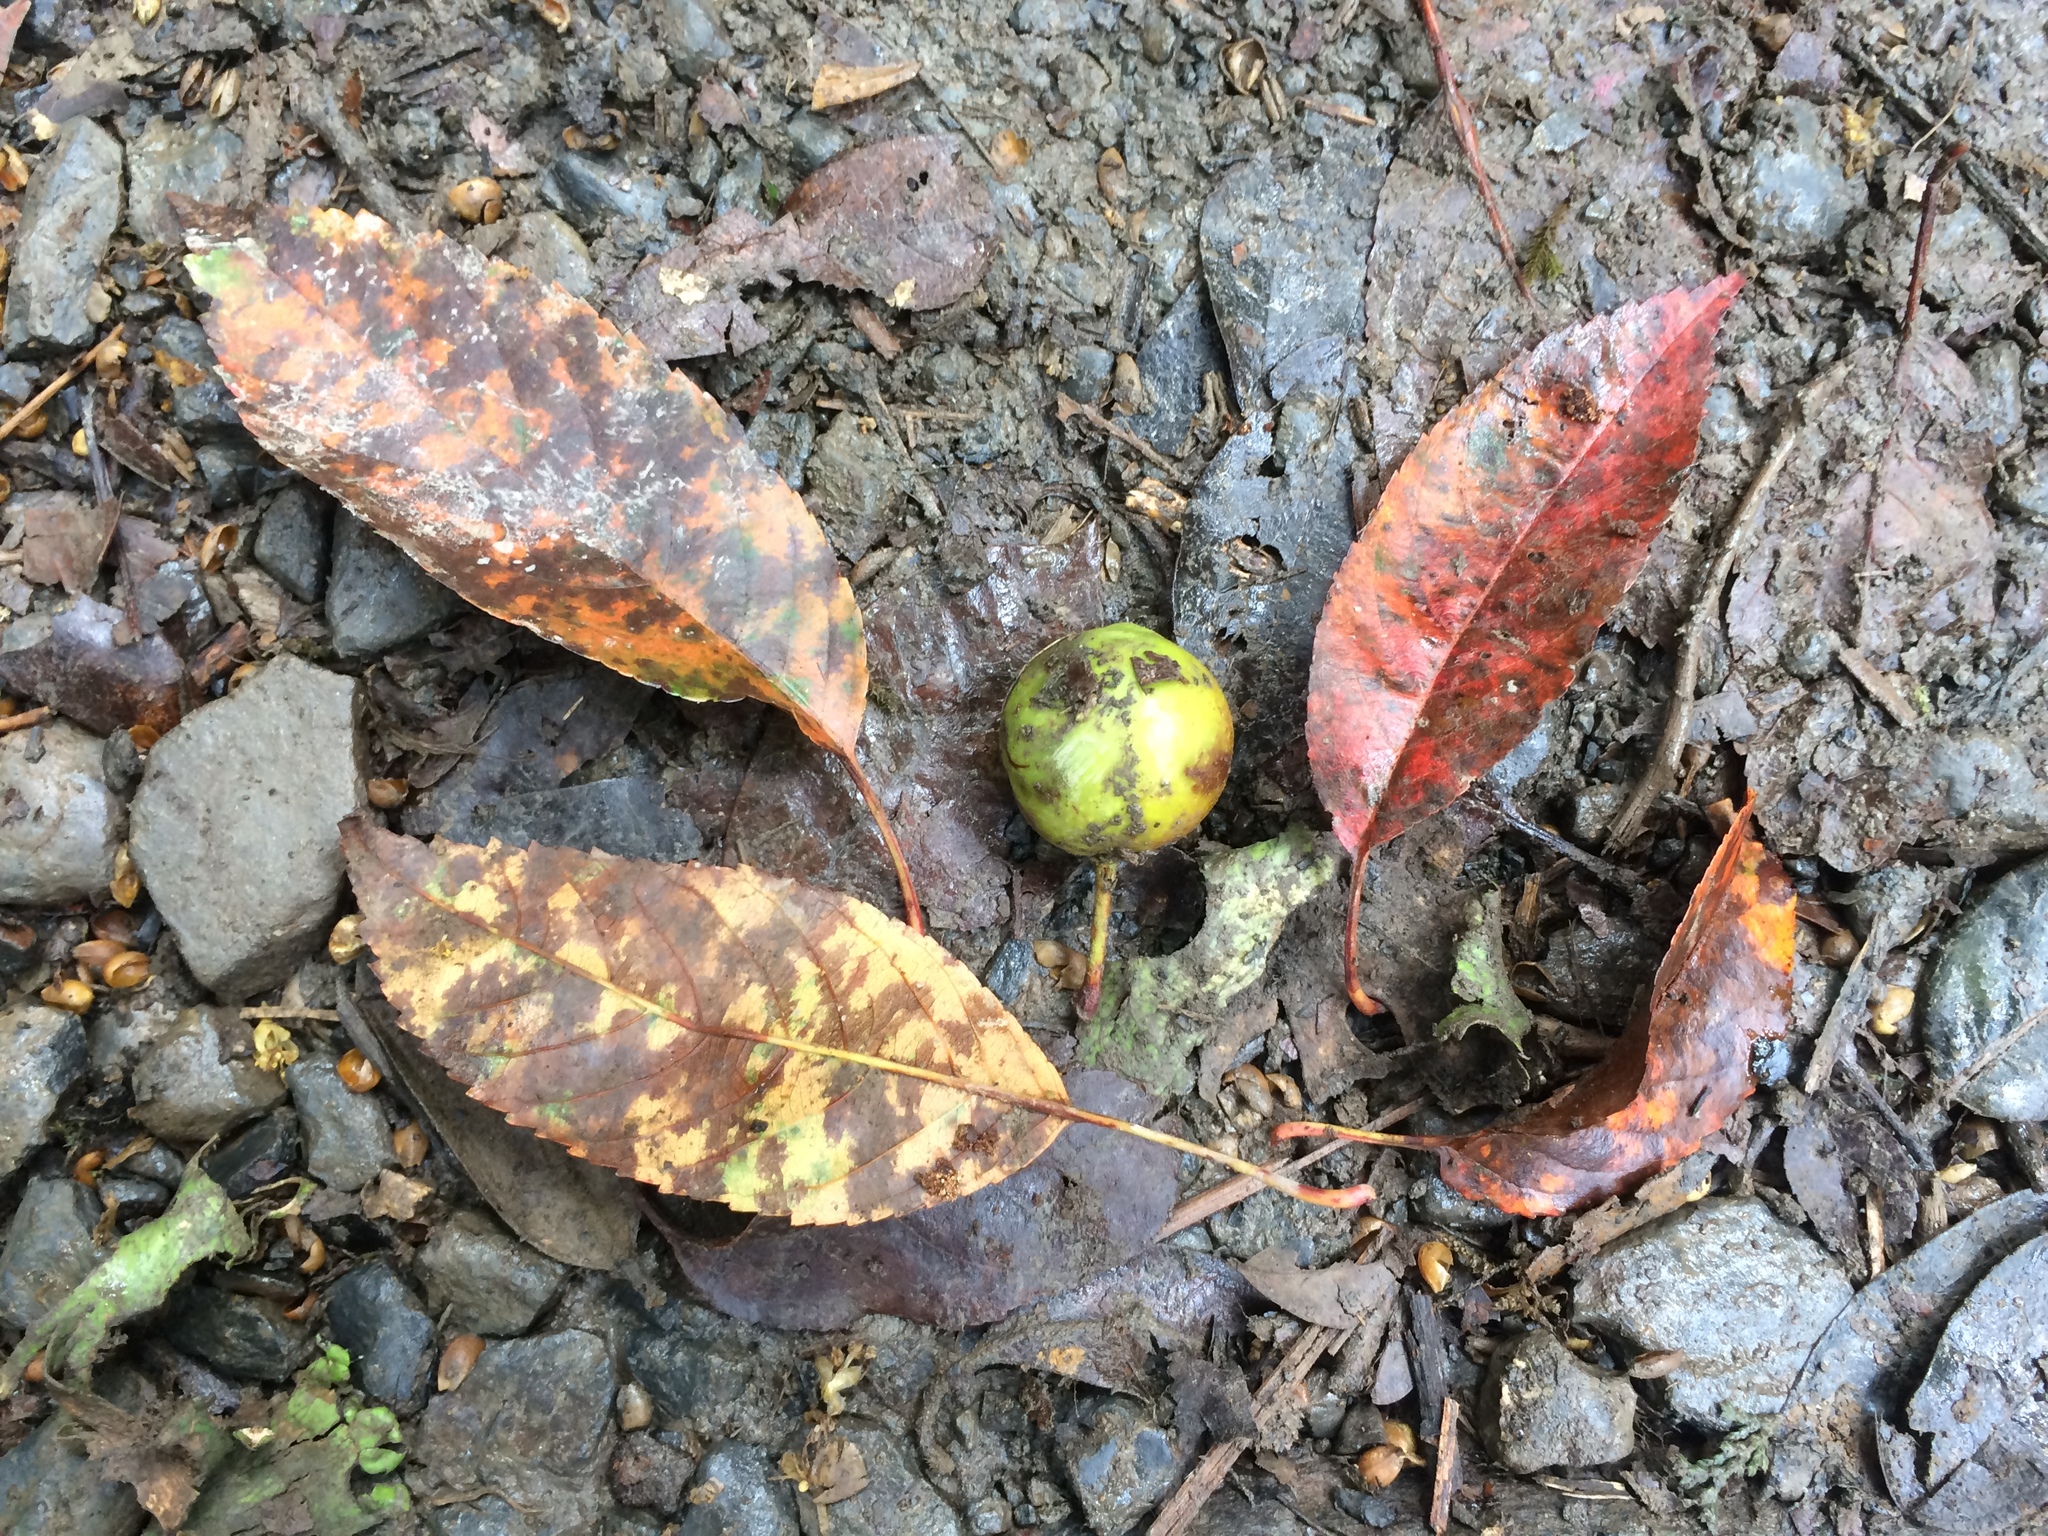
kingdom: Plantae
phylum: Tracheophyta
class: Magnoliopsida
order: Rosales
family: Rosaceae
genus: Malus
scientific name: Malus doumeri
